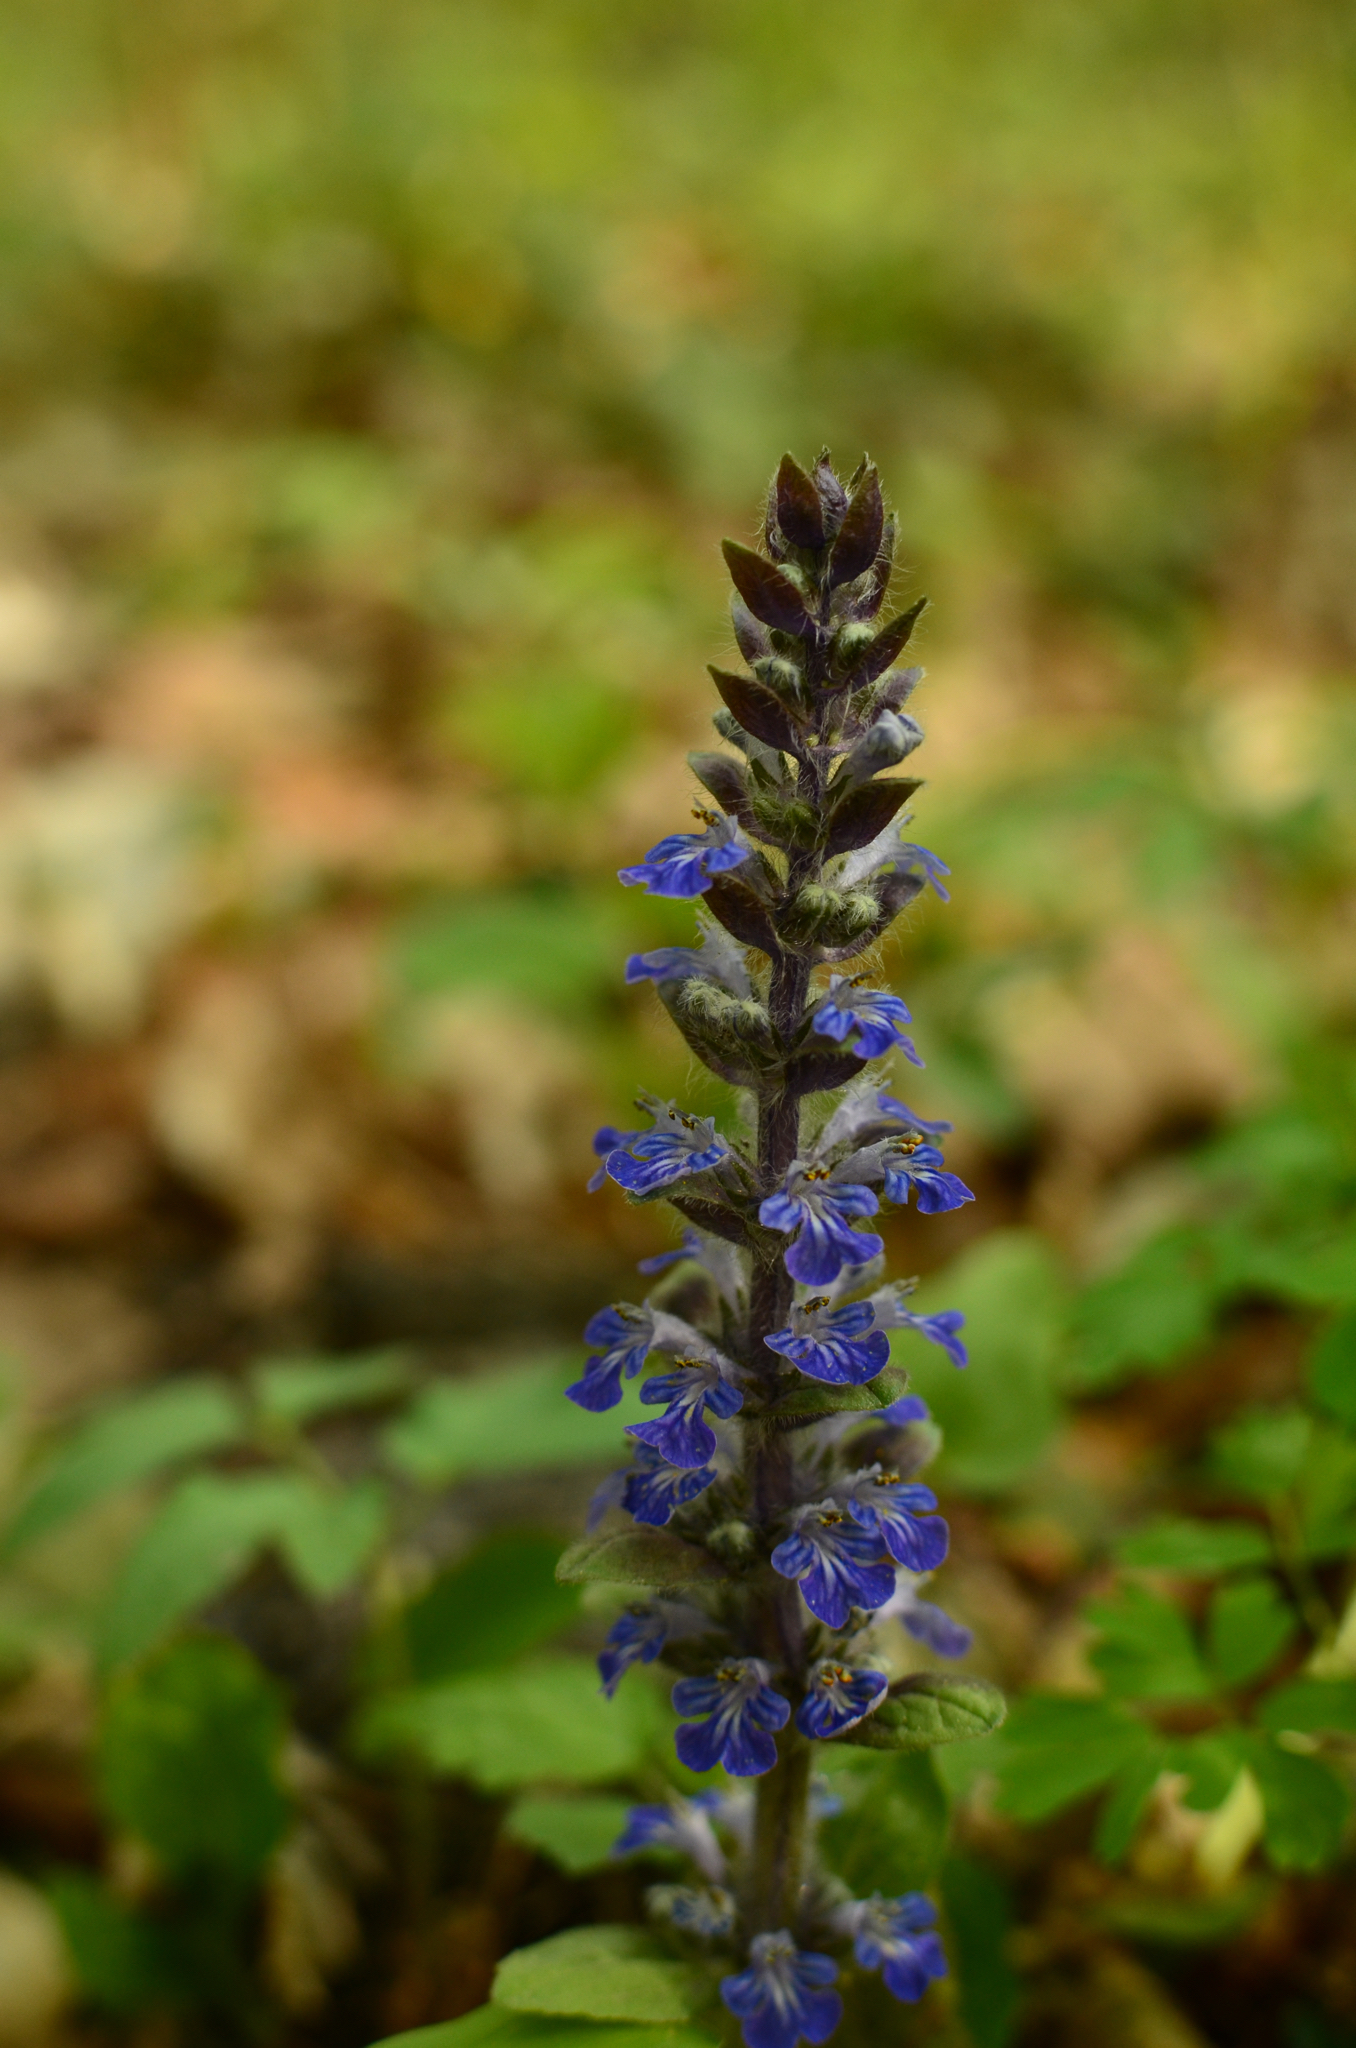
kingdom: Plantae
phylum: Tracheophyta
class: Magnoliopsida
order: Lamiales
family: Lamiaceae
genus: Ajuga
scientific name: Ajuga reptans
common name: Bugle
